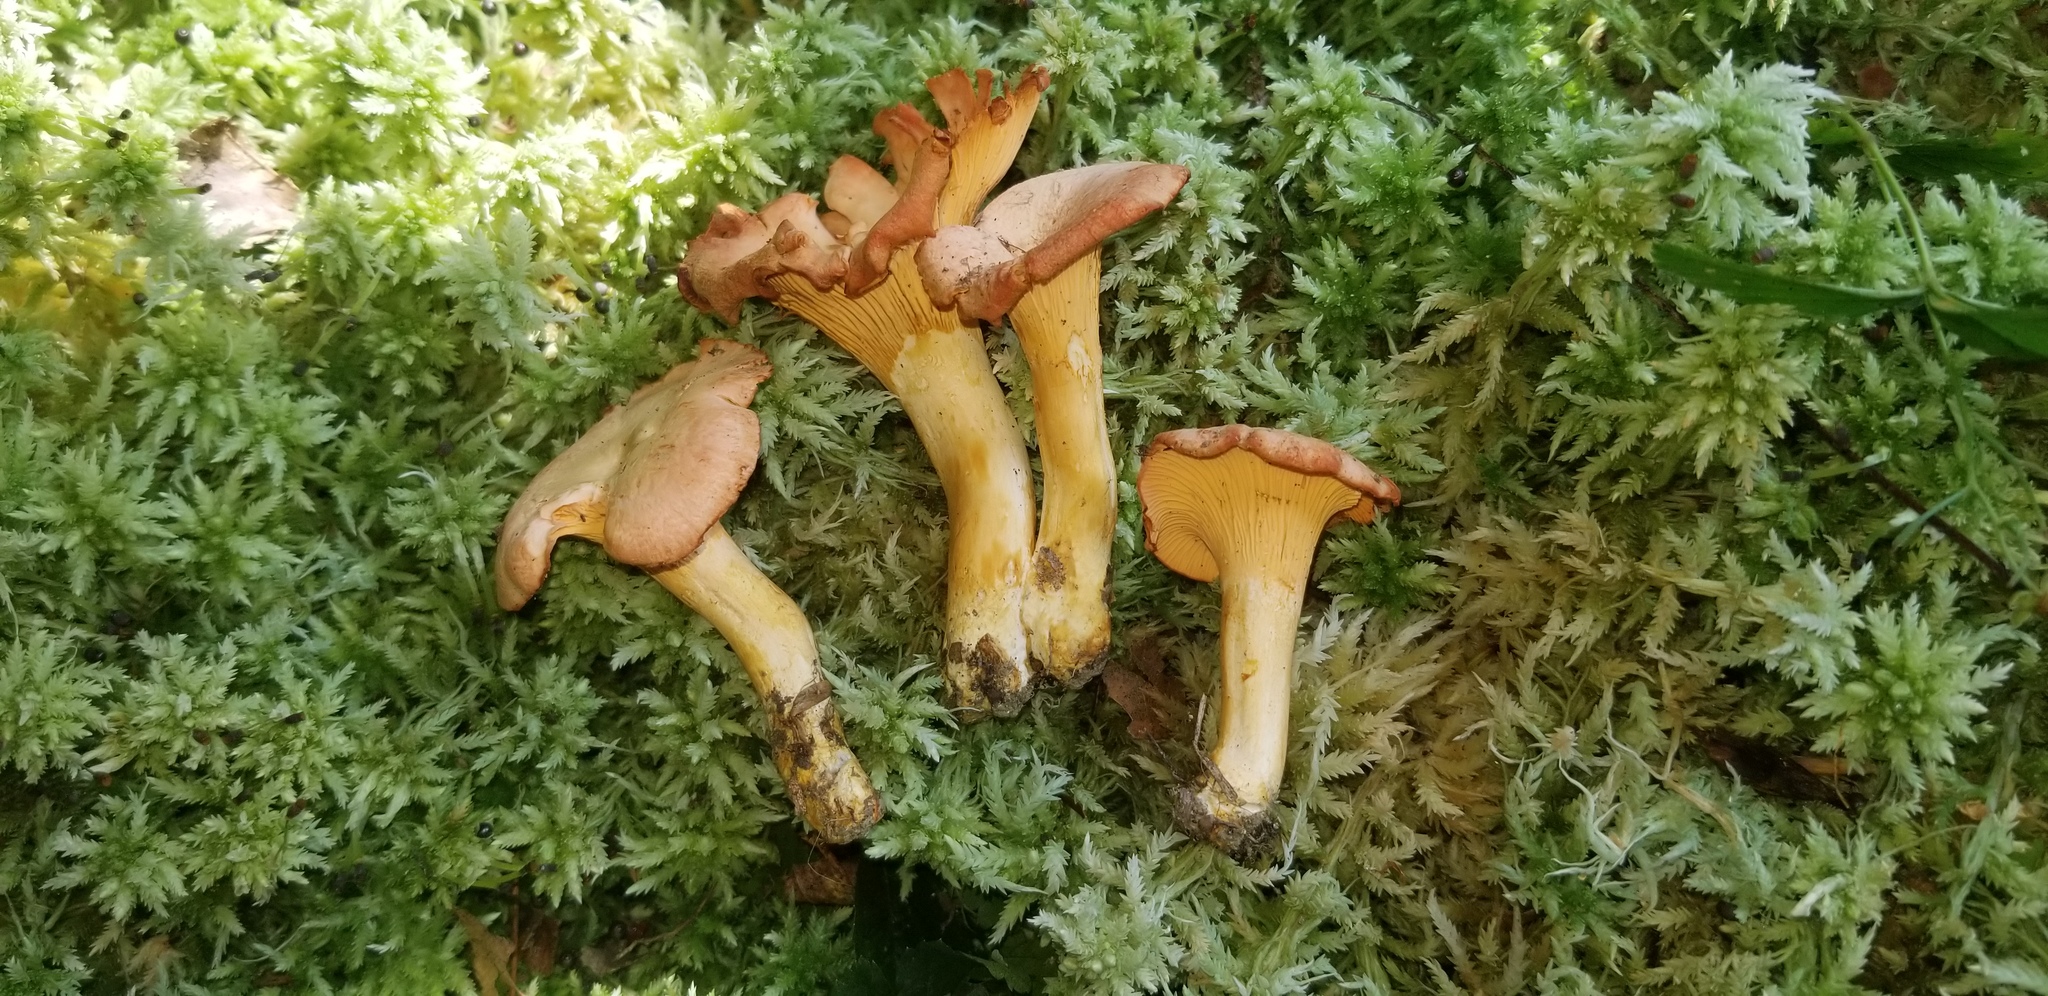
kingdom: Fungi
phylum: Basidiomycota
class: Agaricomycetes
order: Cantharellales
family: Hydnaceae
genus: Cantharellus
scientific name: Cantharellus velutinus
